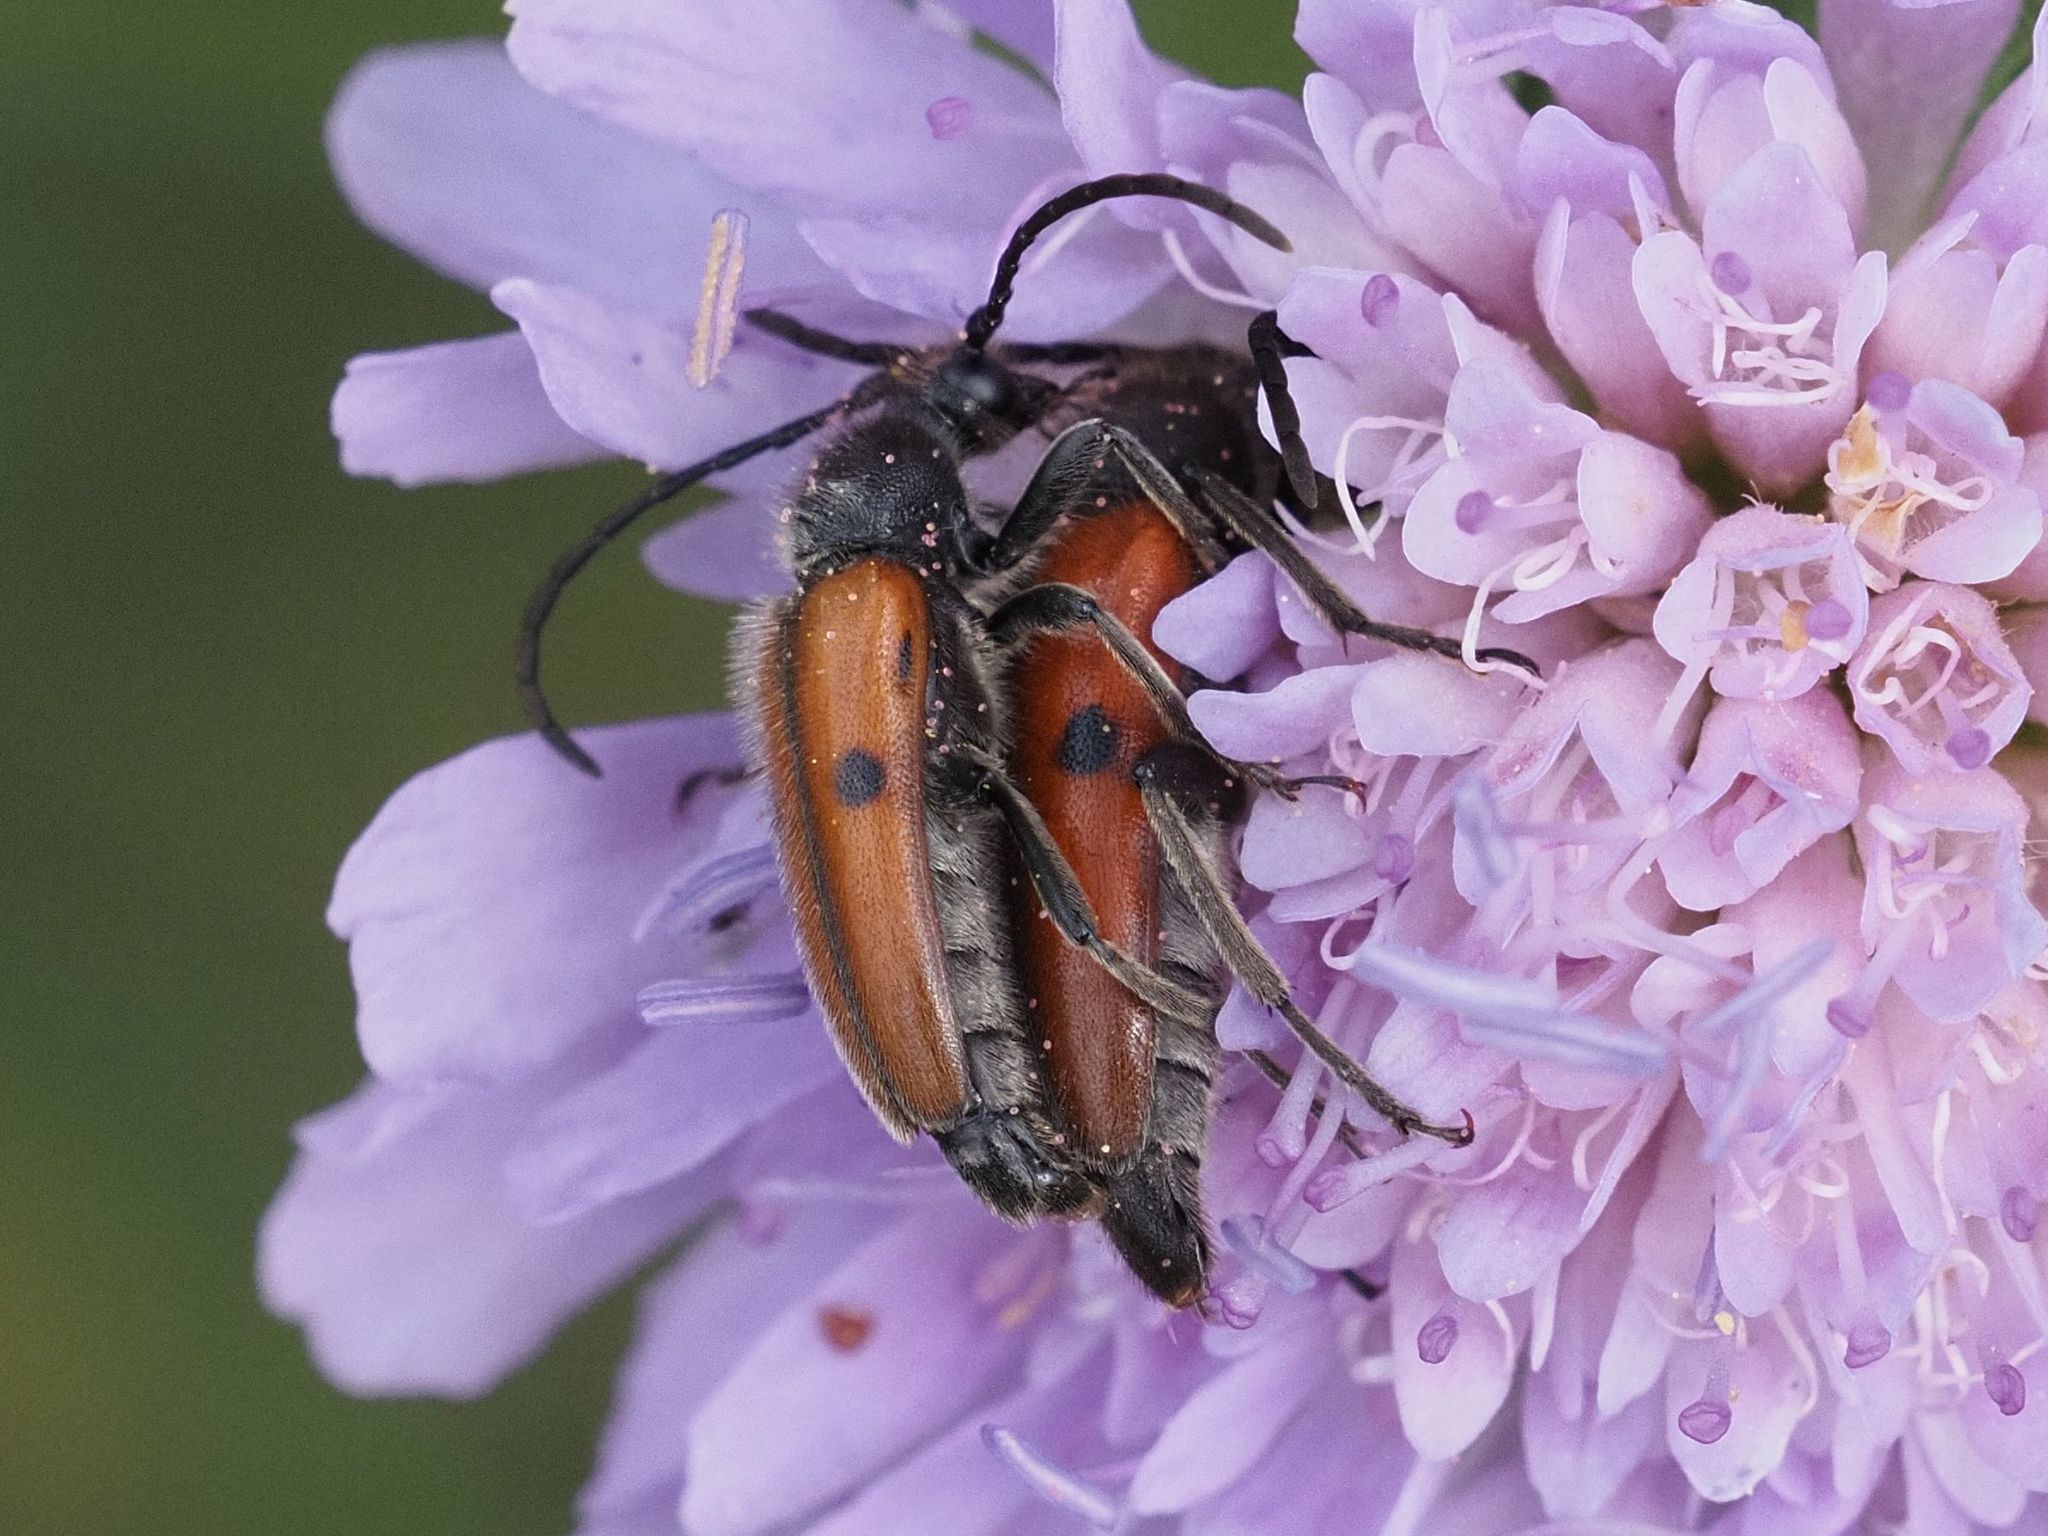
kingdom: Animalia
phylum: Arthropoda
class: Insecta
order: Coleoptera
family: Cerambycidae
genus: Vadonia
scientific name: Vadonia unipunctata
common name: Long-horned beetle
